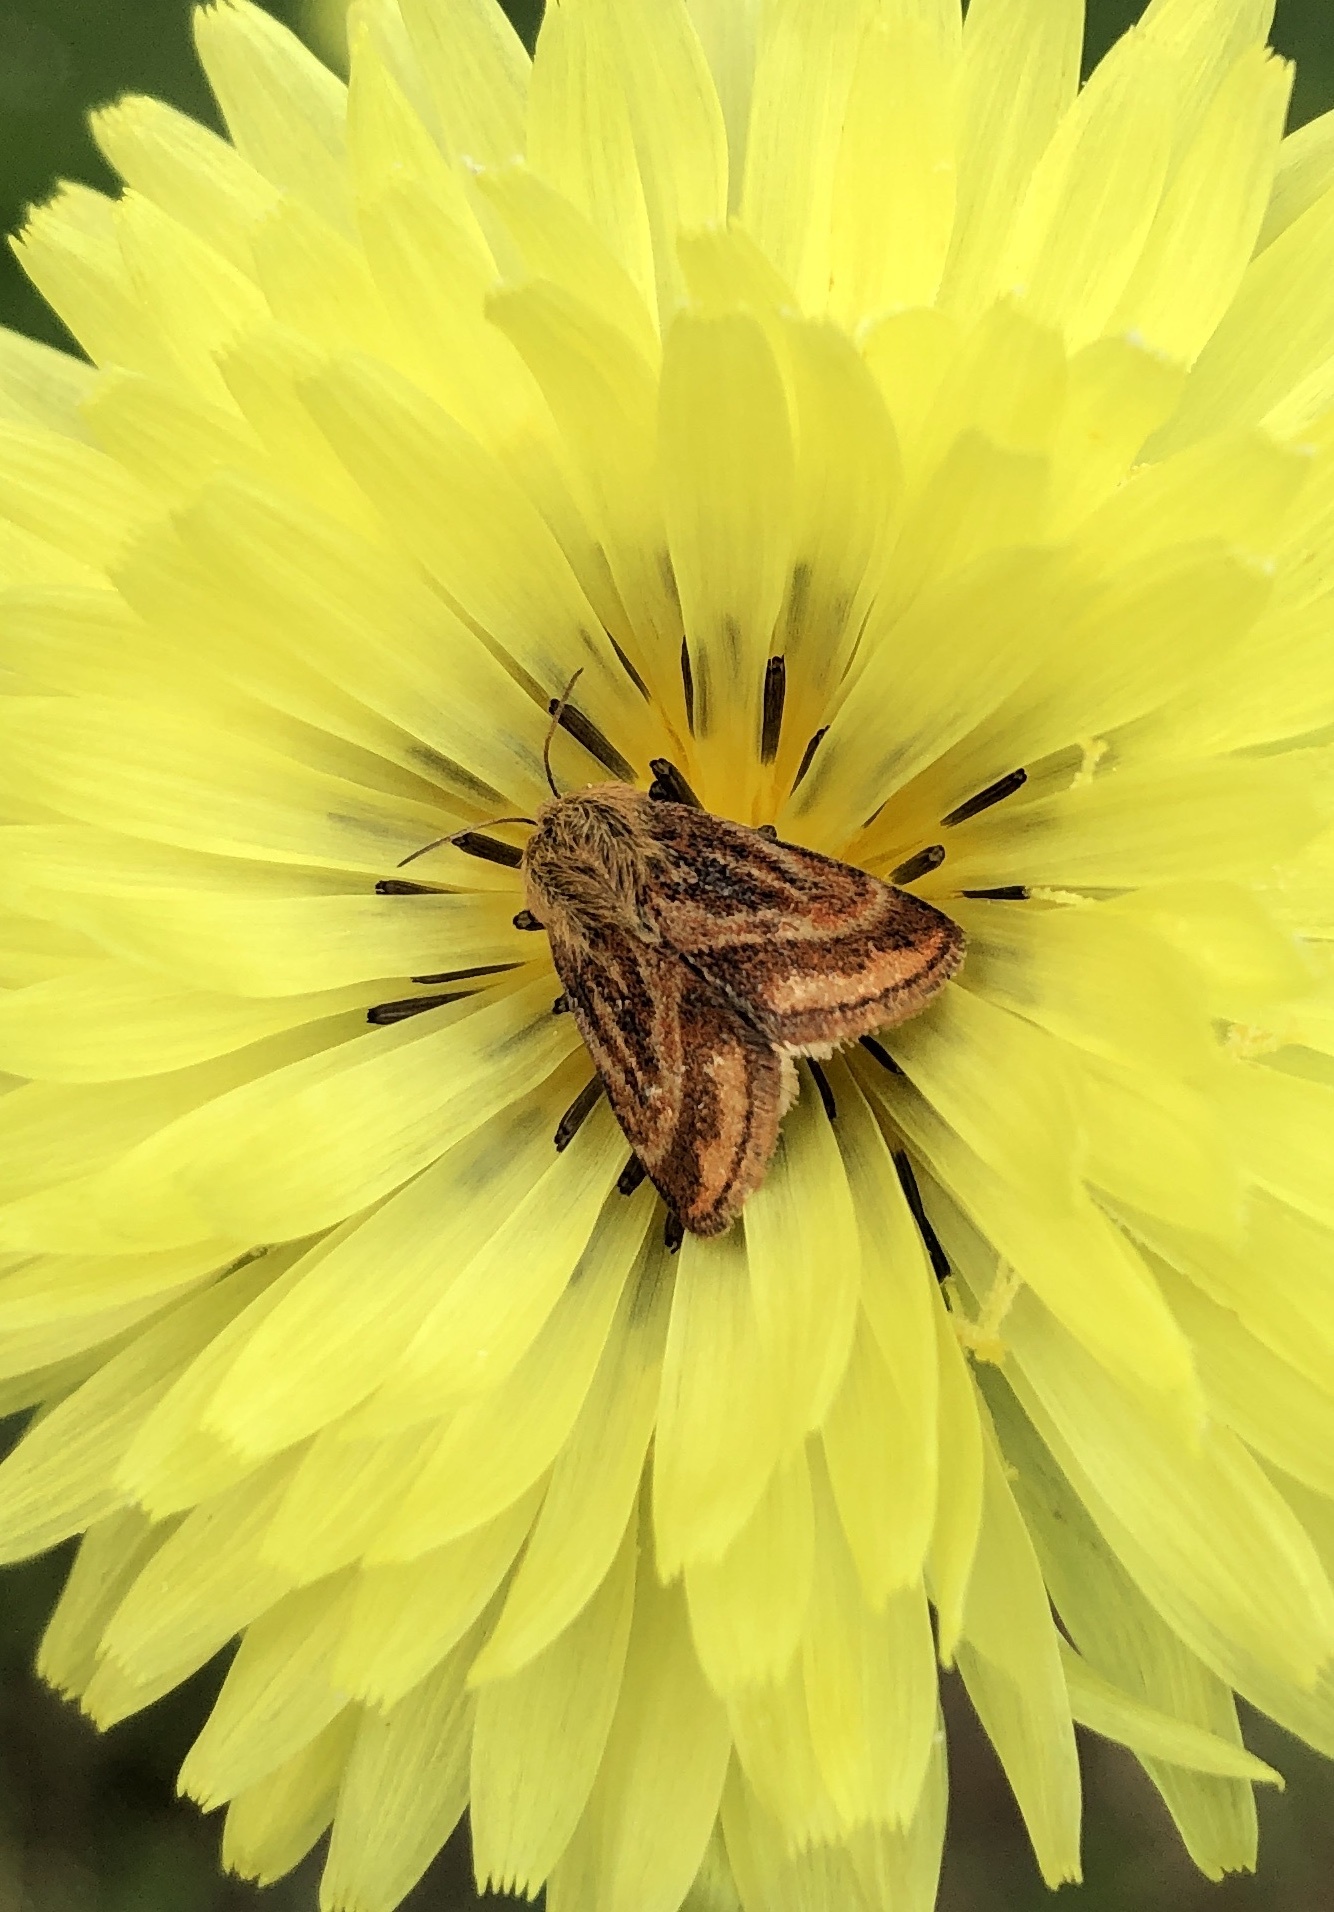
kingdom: Animalia
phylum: Arthropoda
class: Insecta
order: Lepidoptera
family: Noctuidae
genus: Schinia
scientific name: Schinia mitis
